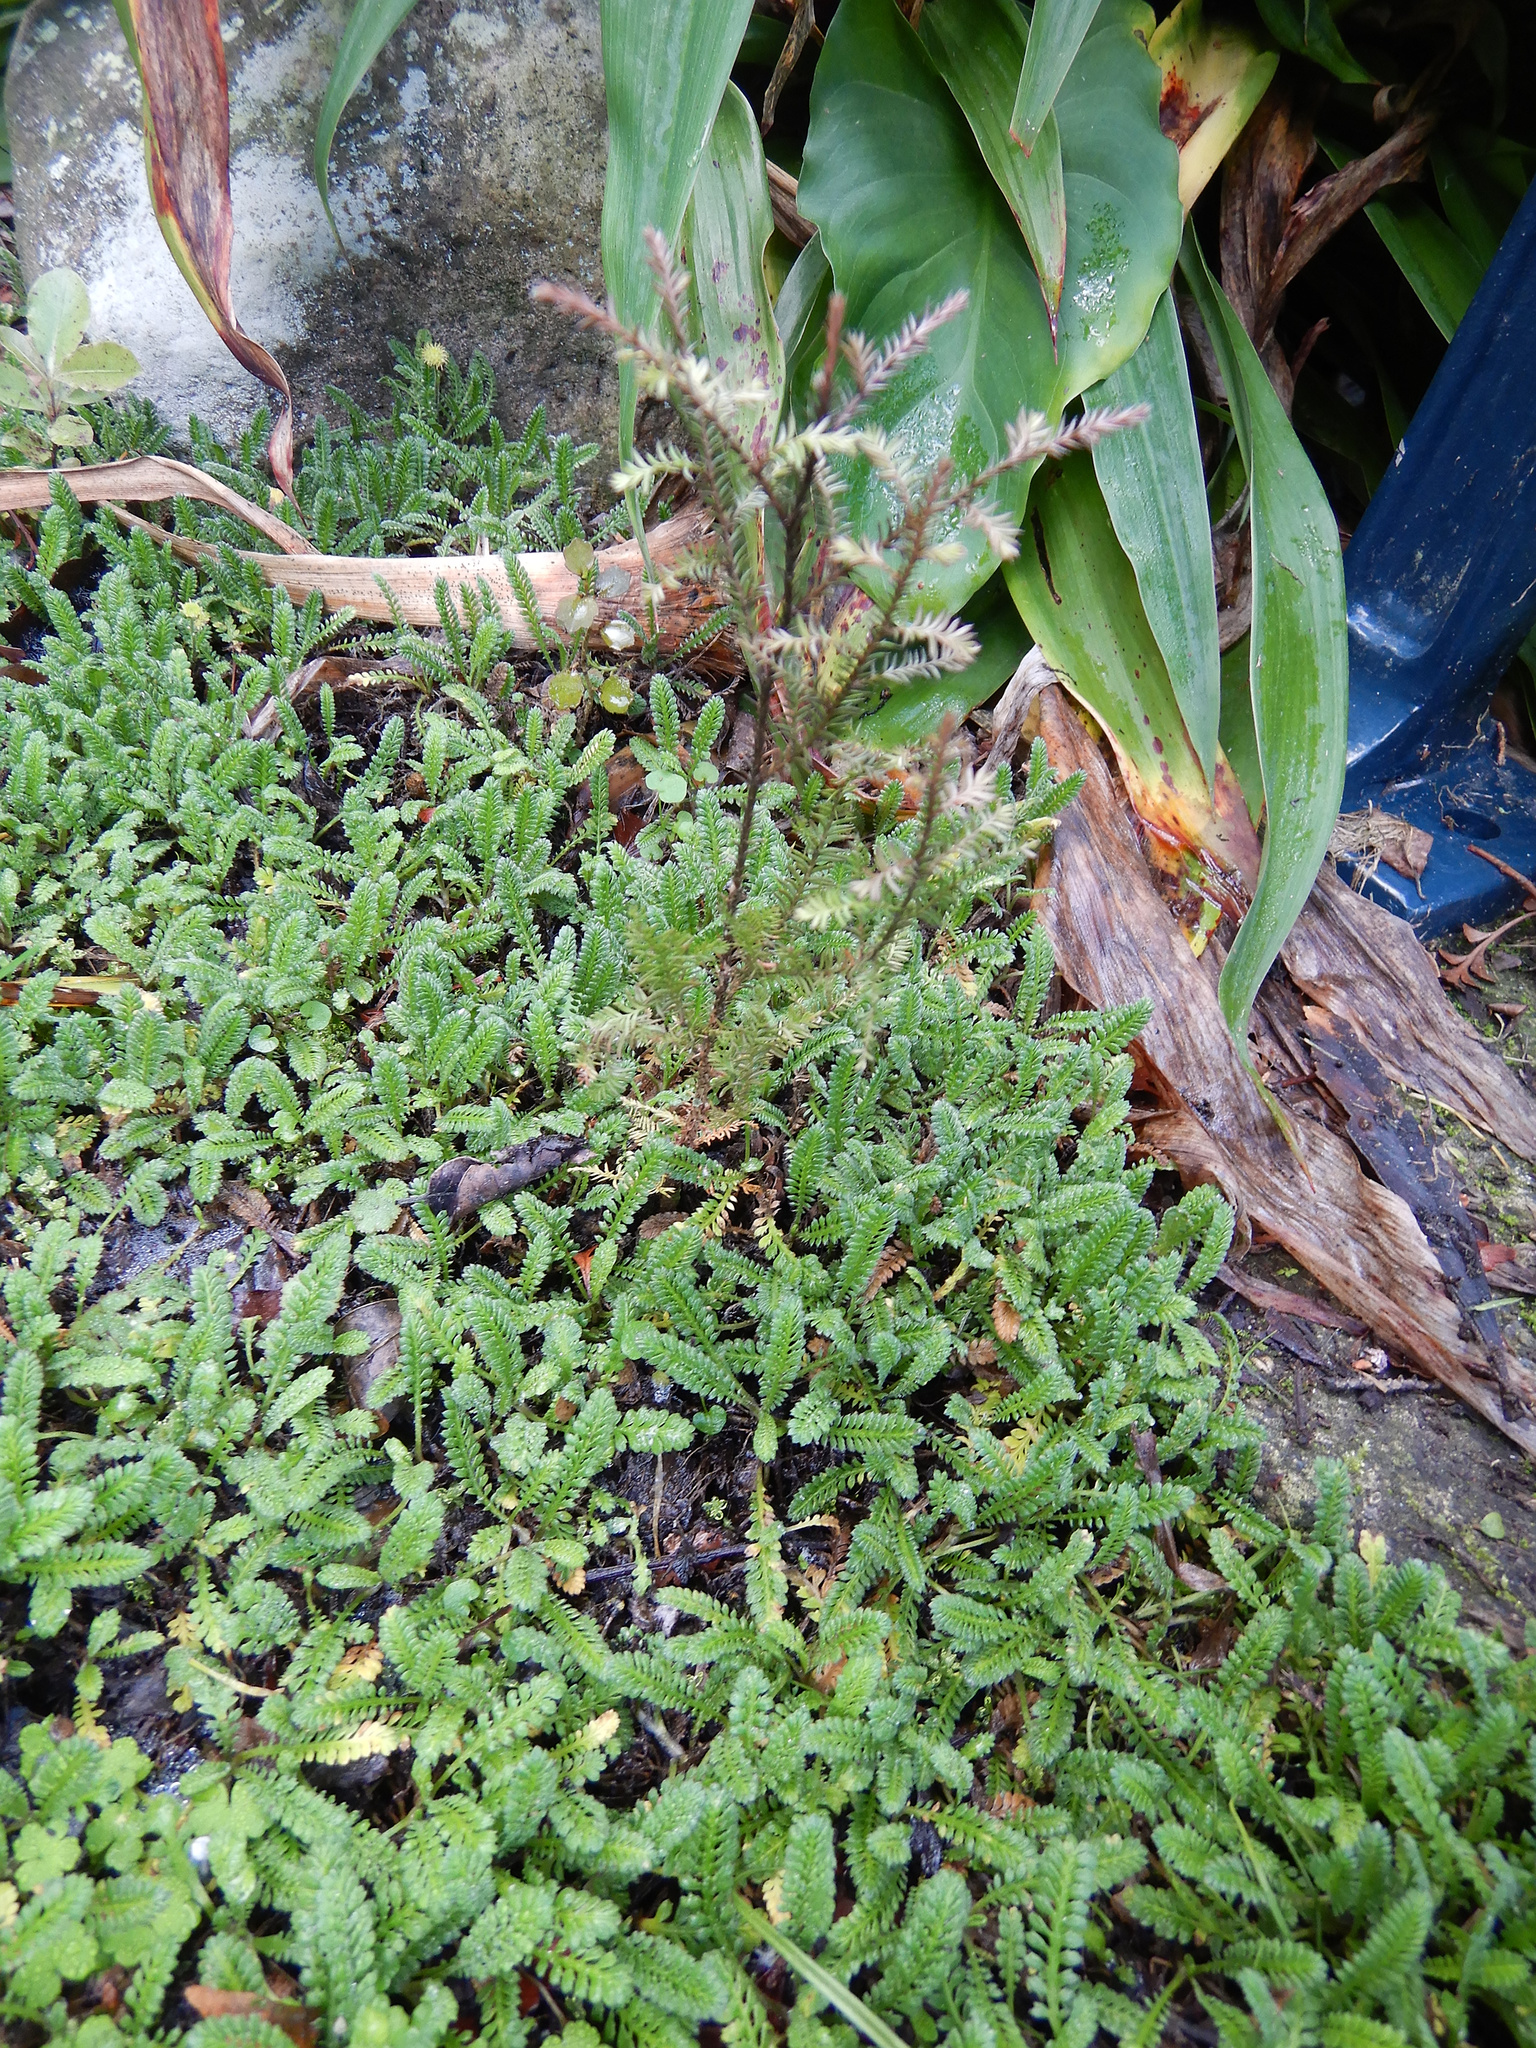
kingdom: Plantae
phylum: Tracheophyta
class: Pinopsida
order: Pinales
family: Podocarpaceae
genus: Dacrycarpus
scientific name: Dacrycarpus dacrydioides
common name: White pine
